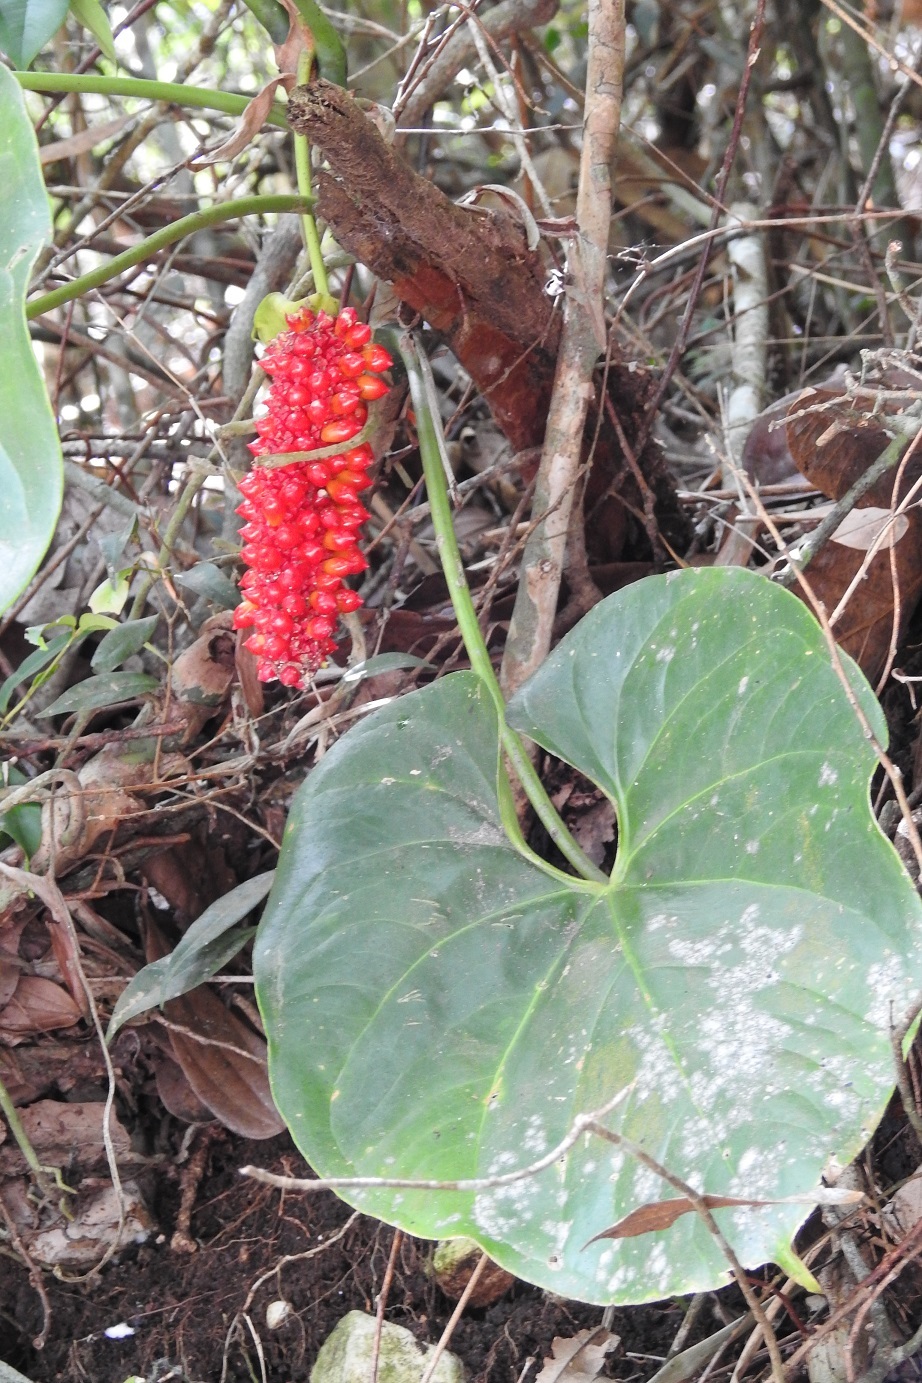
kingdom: Plantae
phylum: Tracheophyta
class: Liliopsida
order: Alismatales
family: Araceae
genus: Anthurium
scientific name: Anthurium rionegrense
